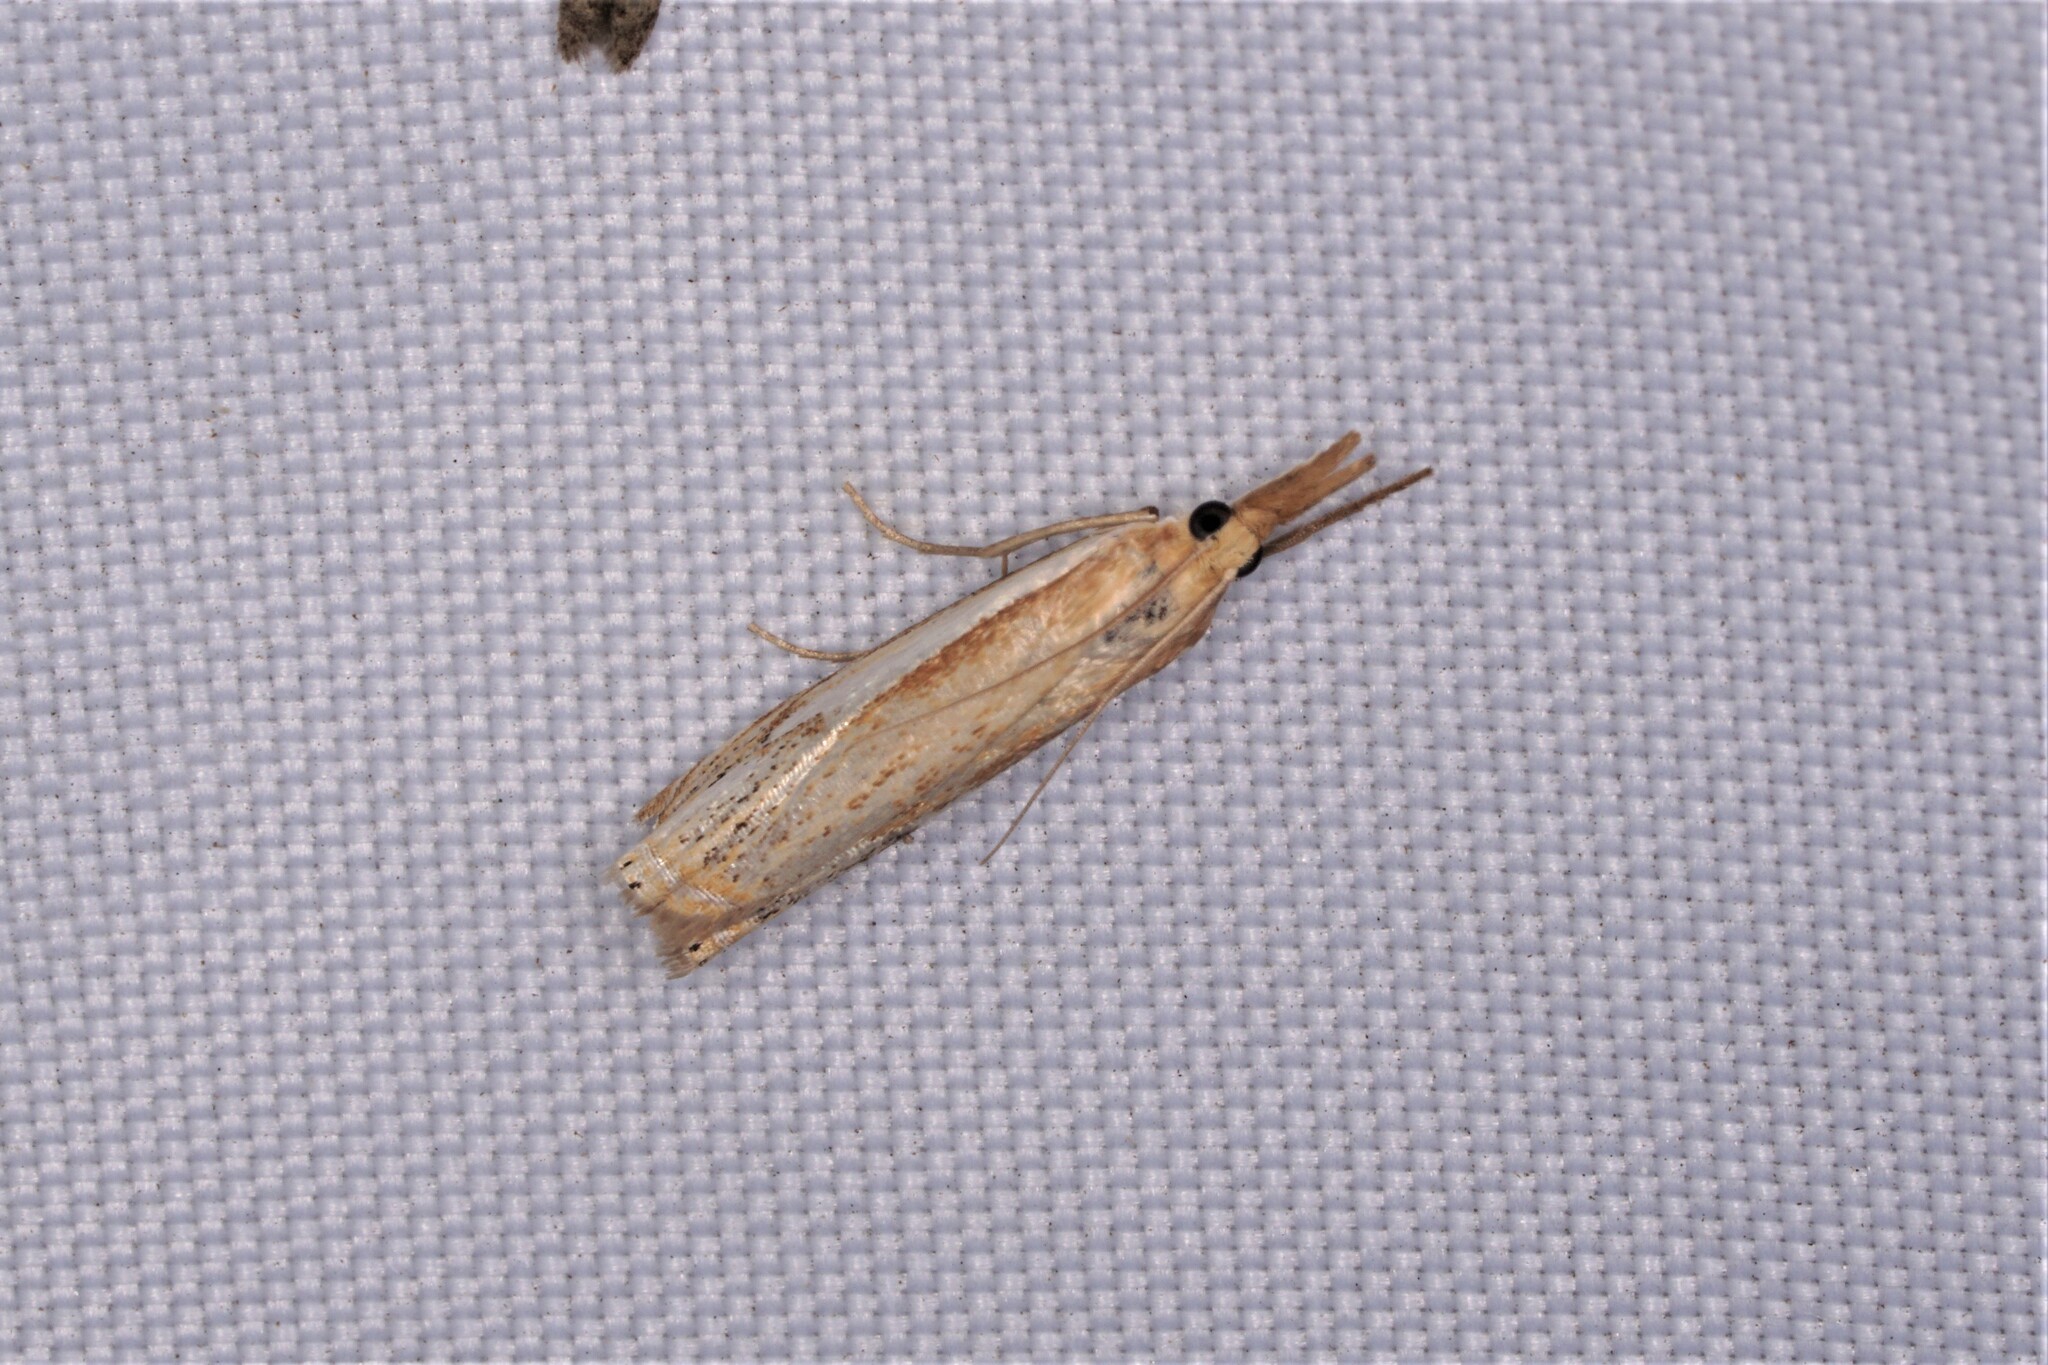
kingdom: Animalia
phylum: Arthropoda
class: Insecta
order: Lepidoptera
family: Crambidae
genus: Crambus
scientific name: Crambus agitatellus
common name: Double-banded grass-veneer
